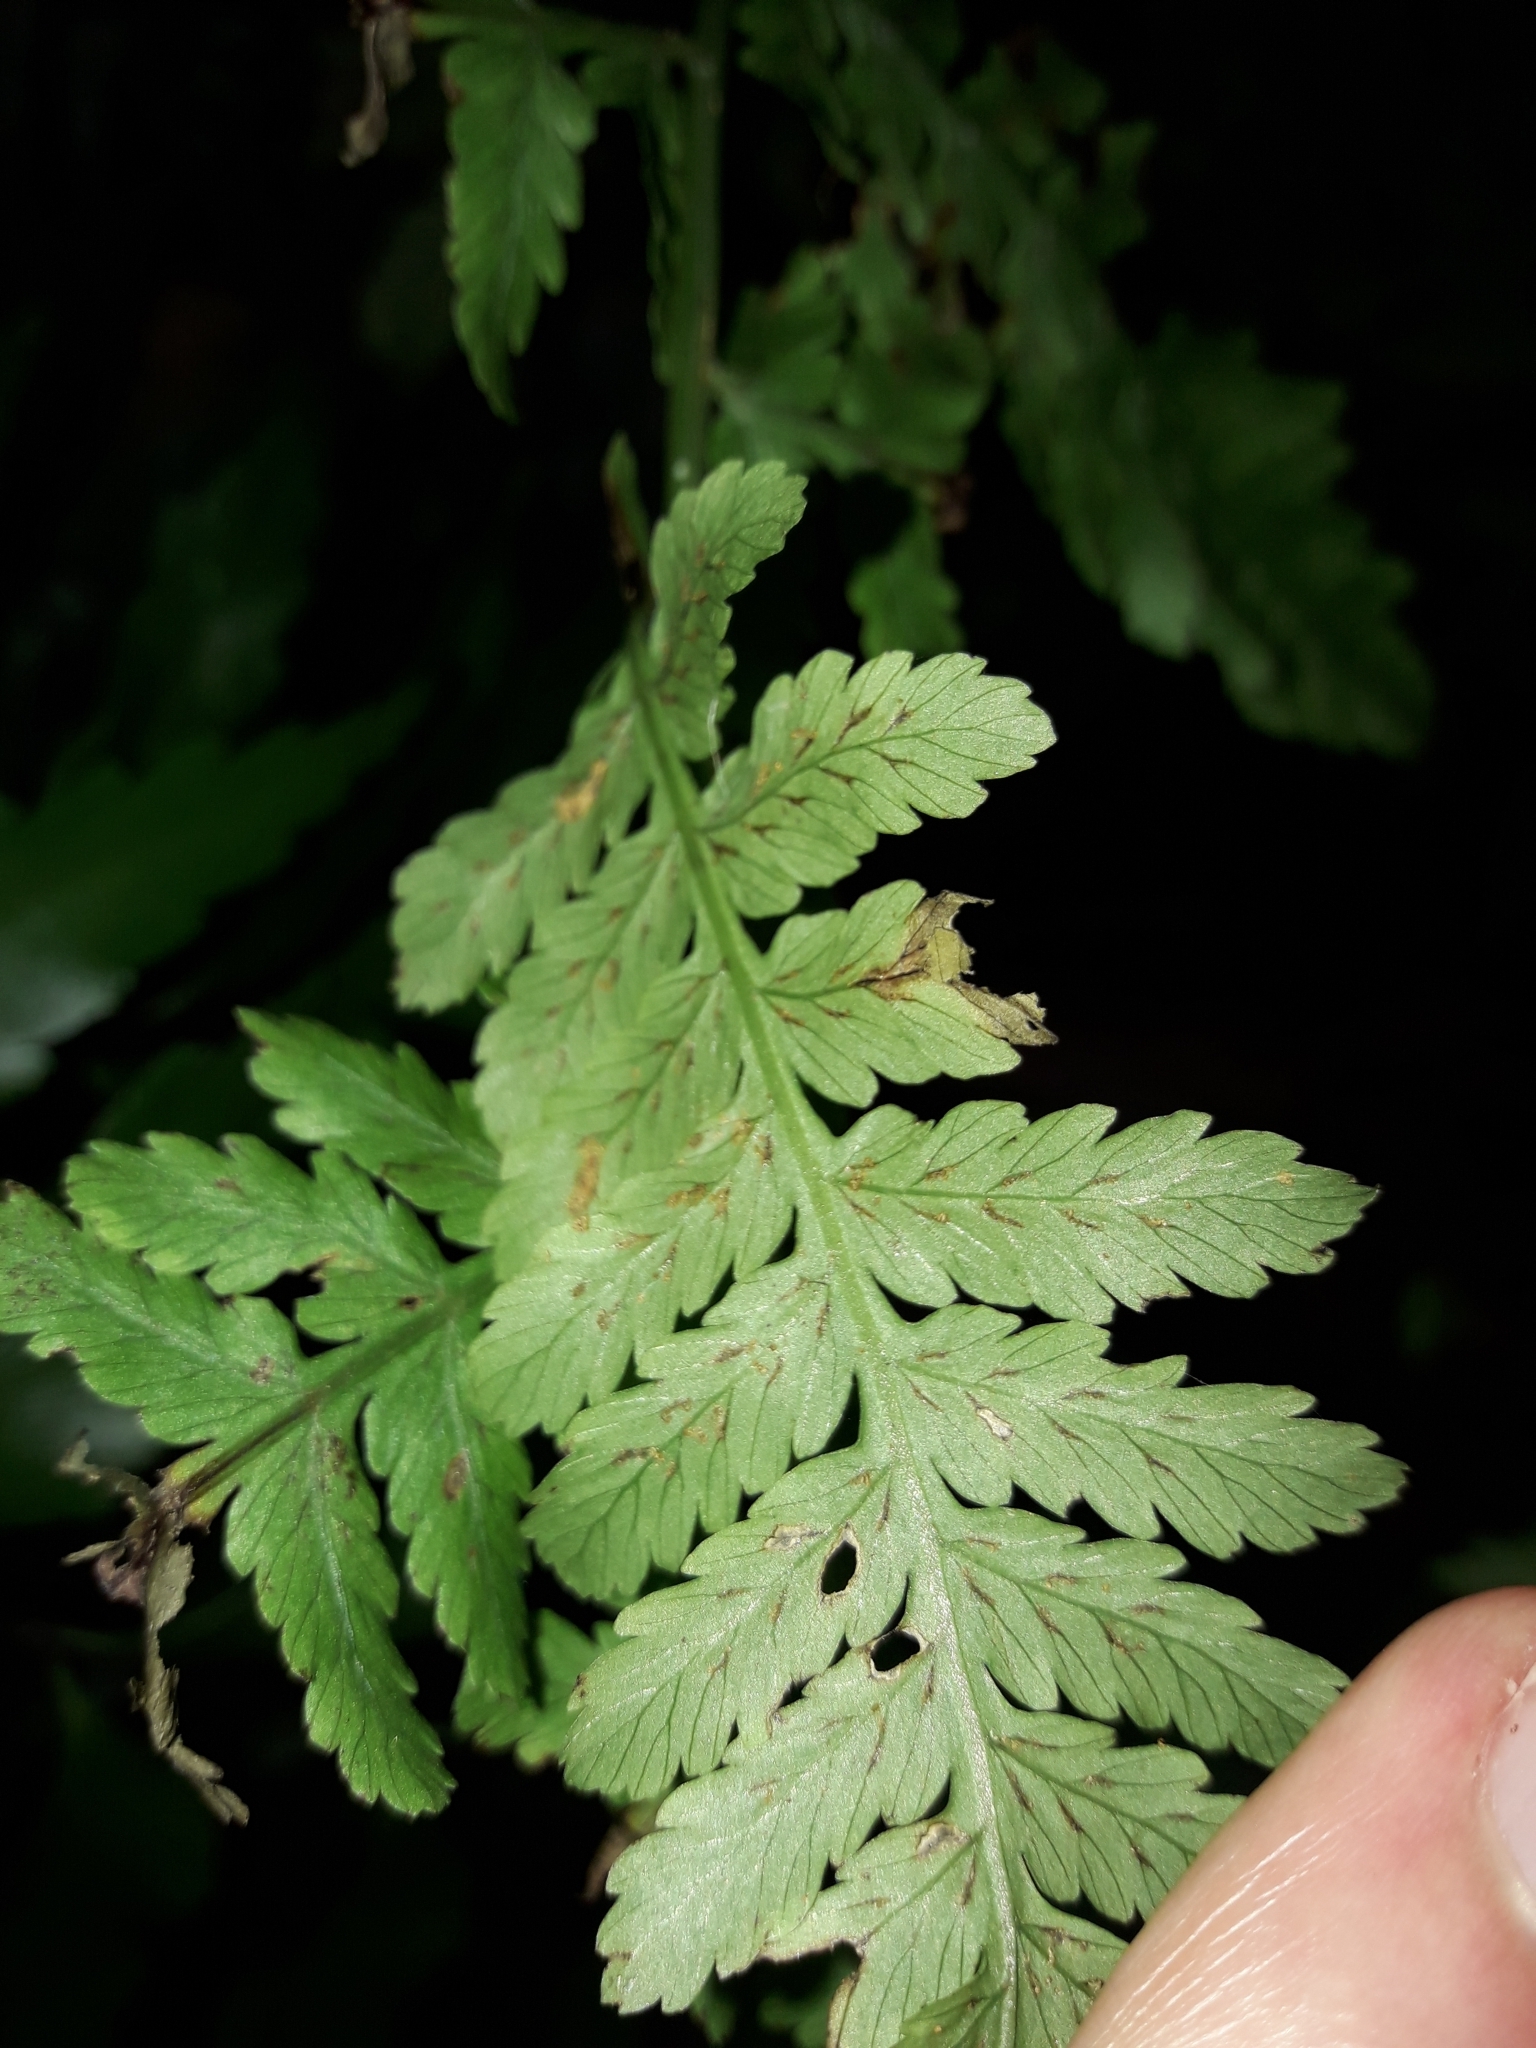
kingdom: Plantae
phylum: Tracheophyta
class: Polypodiopsida
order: Polypodiales
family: Athyriaceae
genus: Diplazium
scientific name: Diplazium australe
